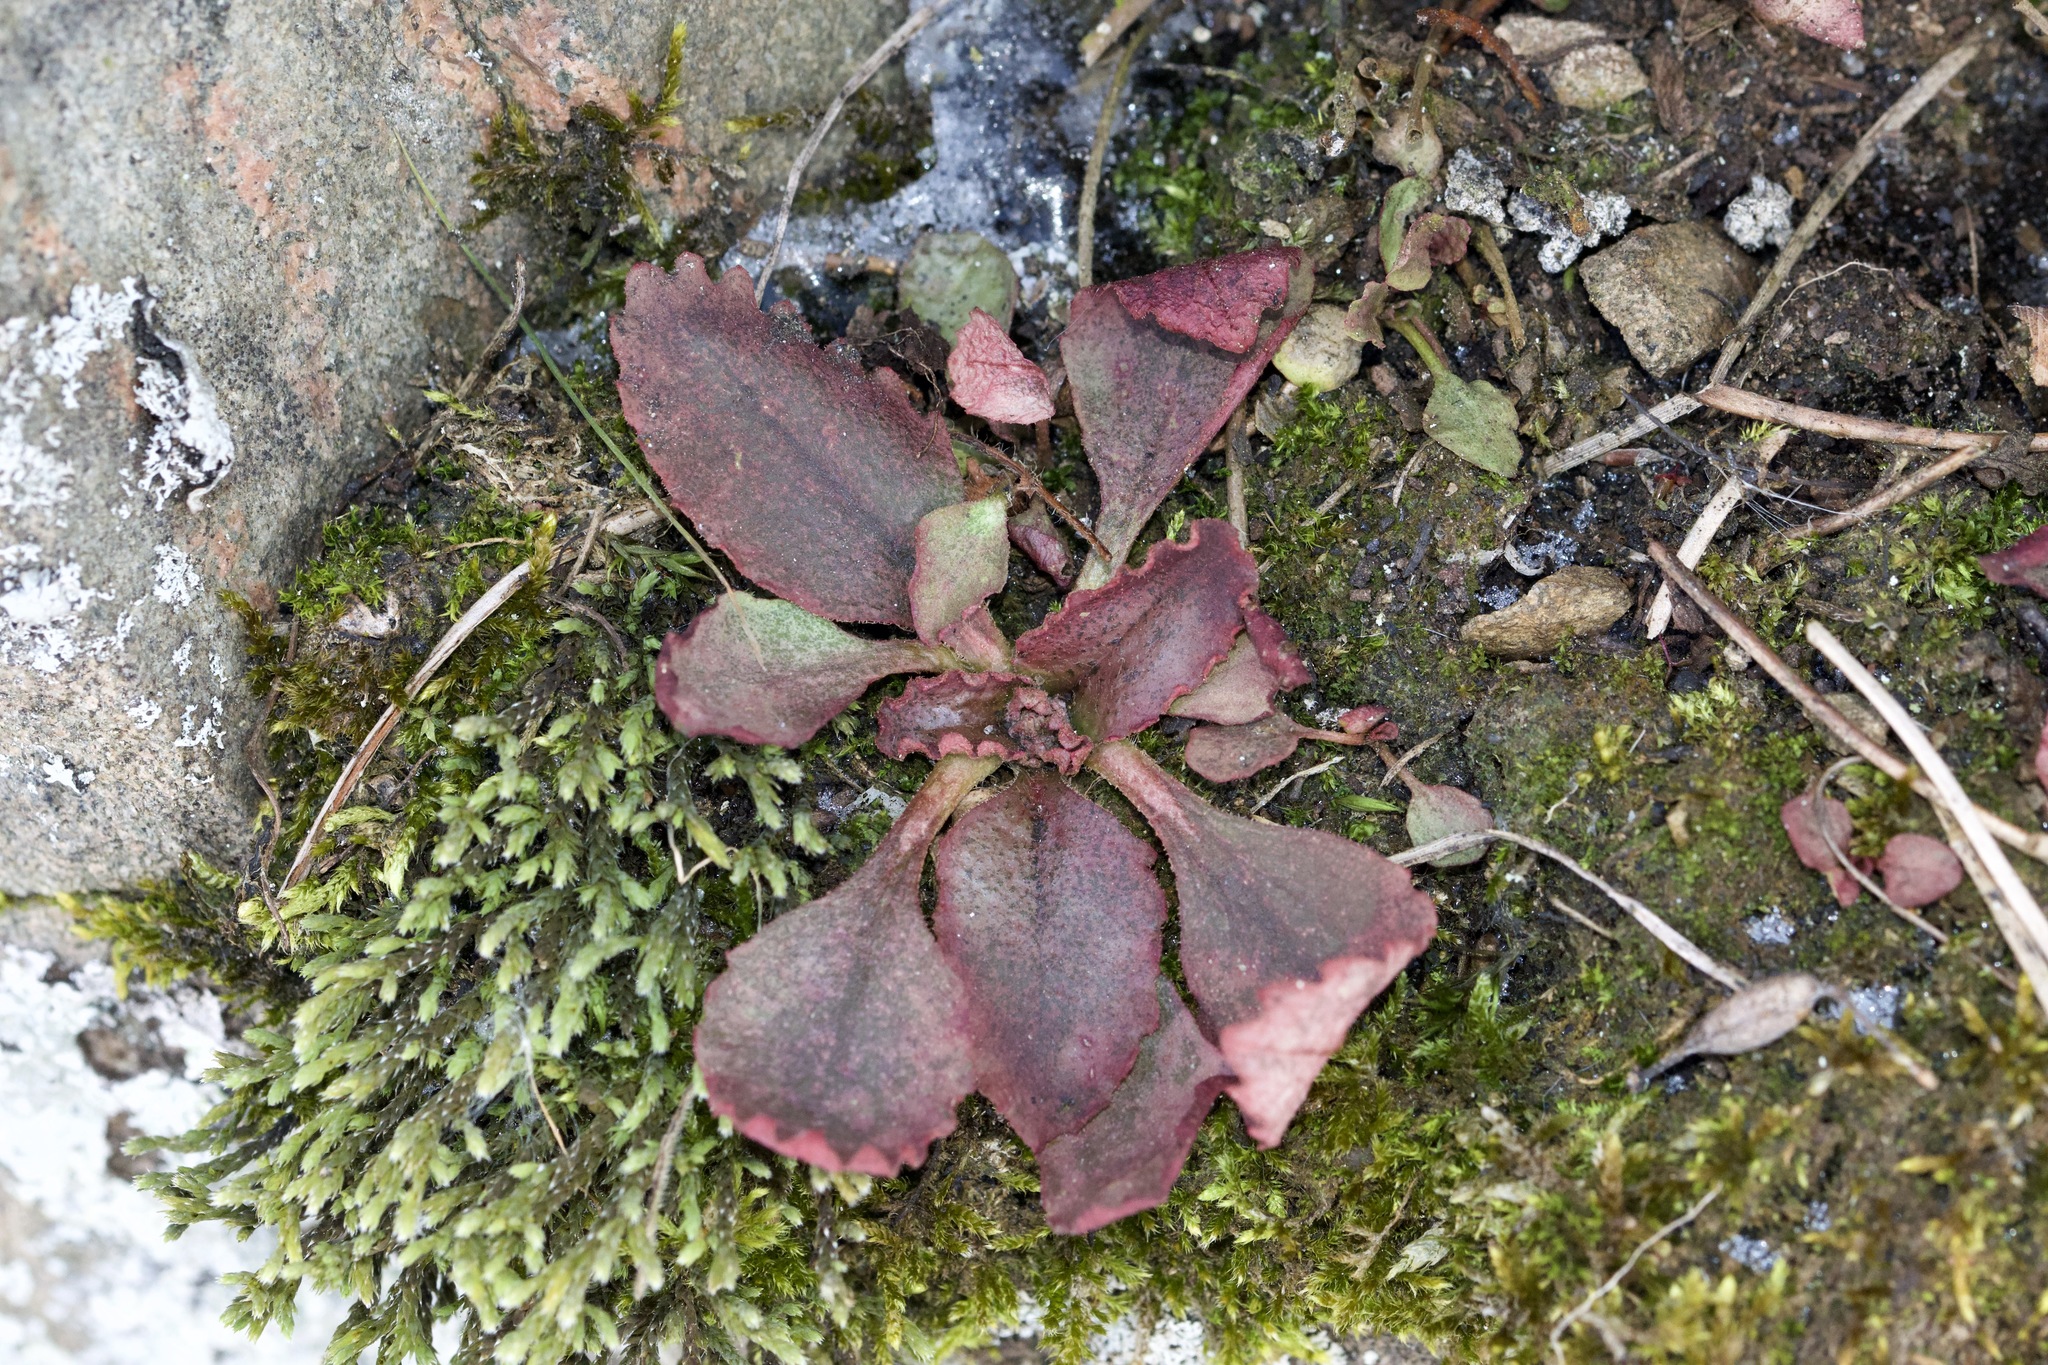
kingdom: Plantae
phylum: Tracheophyta
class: Magnoliopsida
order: Saxifragales
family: Saxifragaceae
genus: Micranthes
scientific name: Micranthes virginiensis
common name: Early saxifrage
